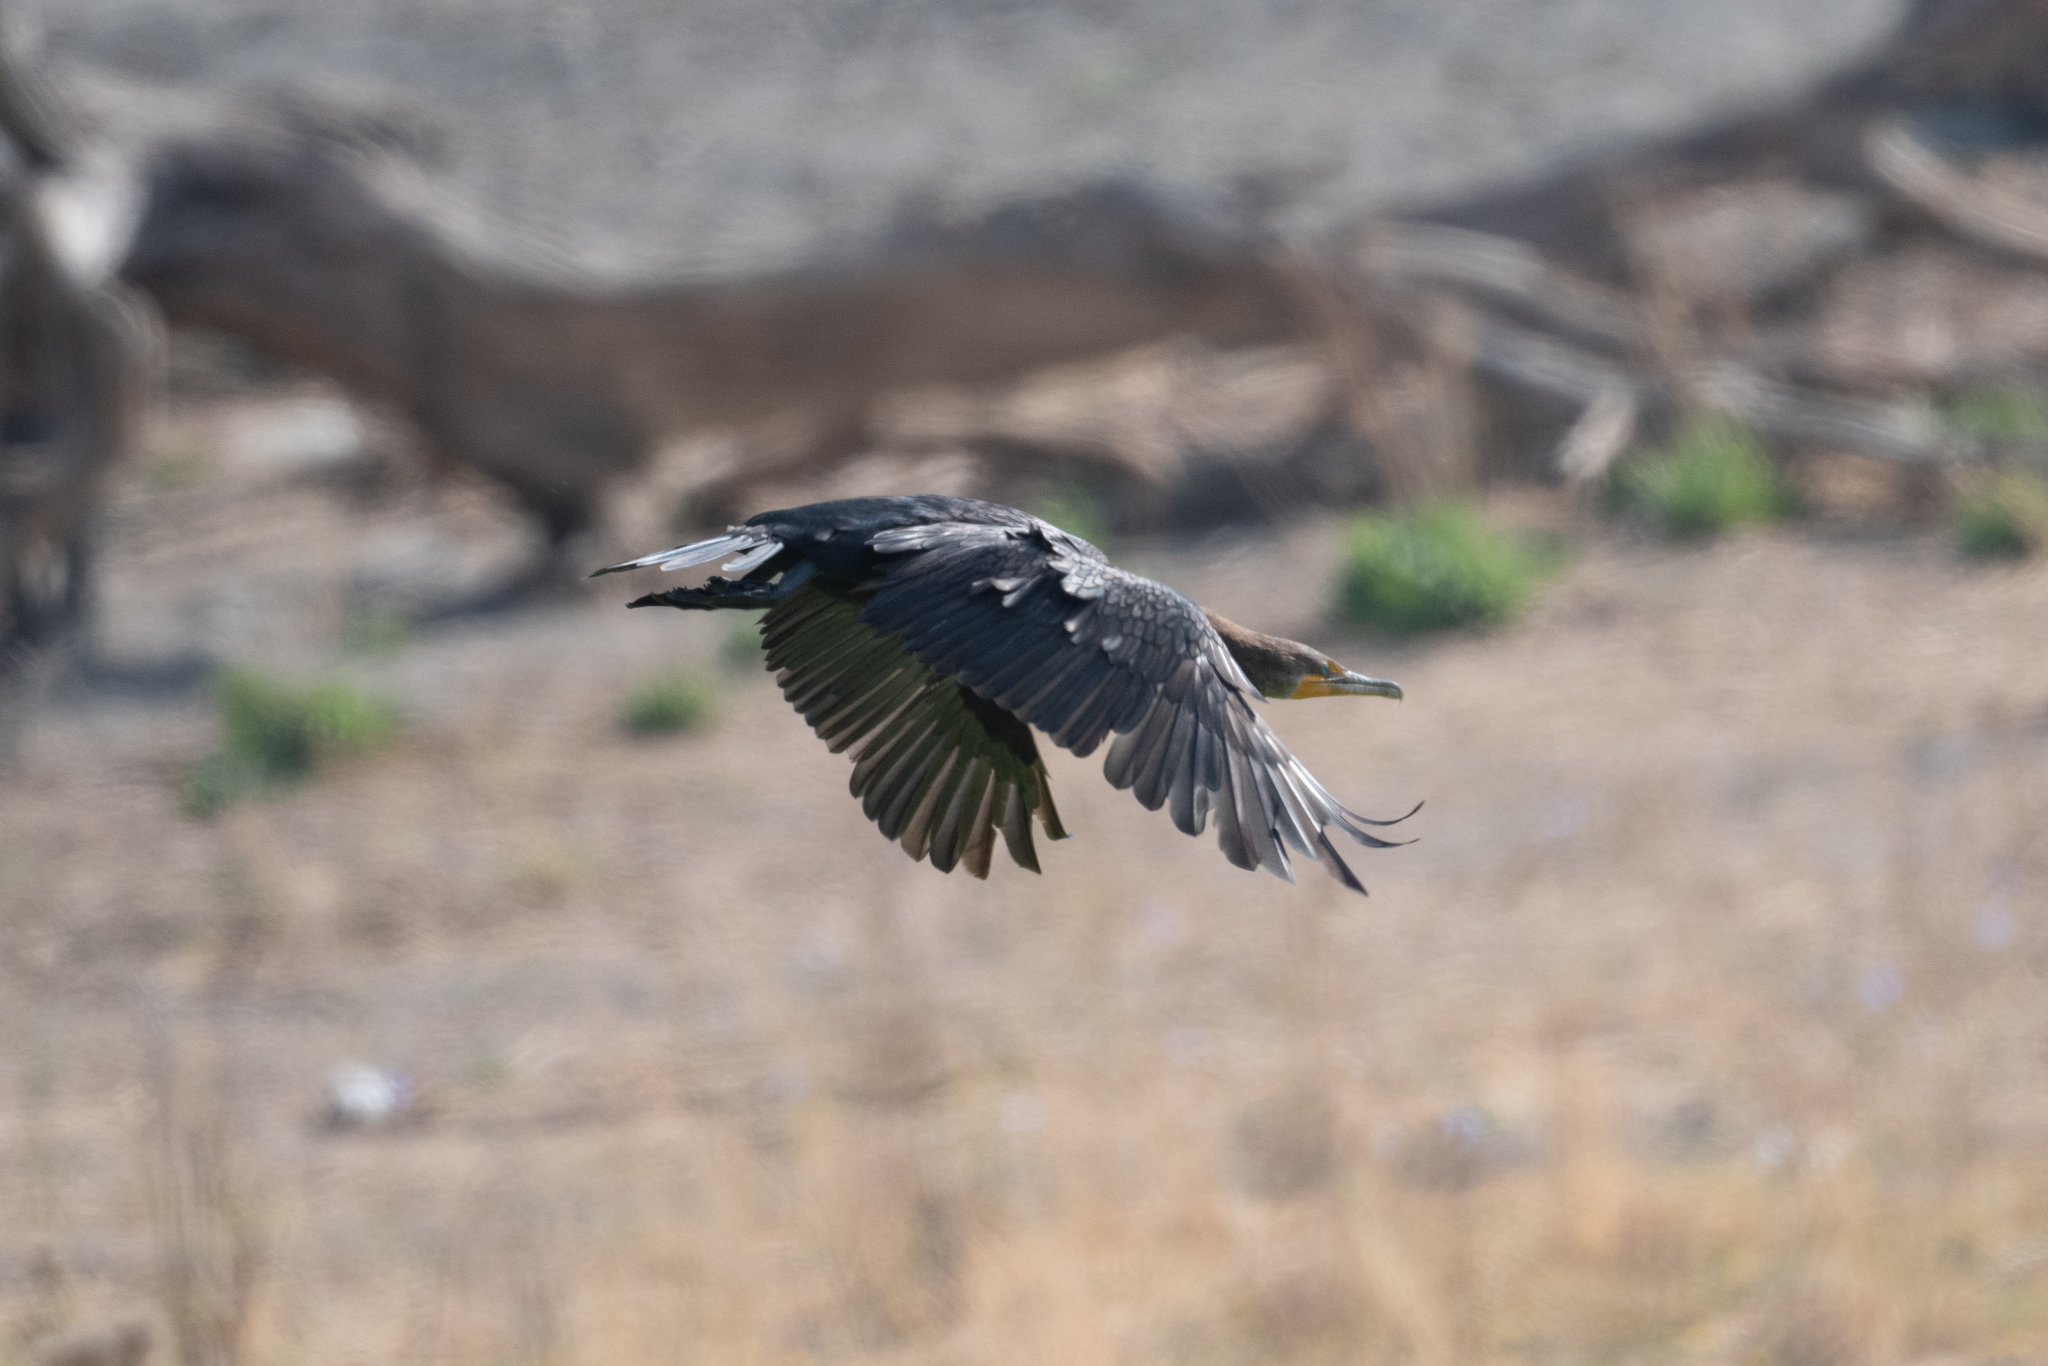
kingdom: Animalia
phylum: Chordata
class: Aves
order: Suliformes
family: Phalacrocoracidae
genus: Phalacrocorax
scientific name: Phalacrocorax auritus
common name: Double-crested cormorant
